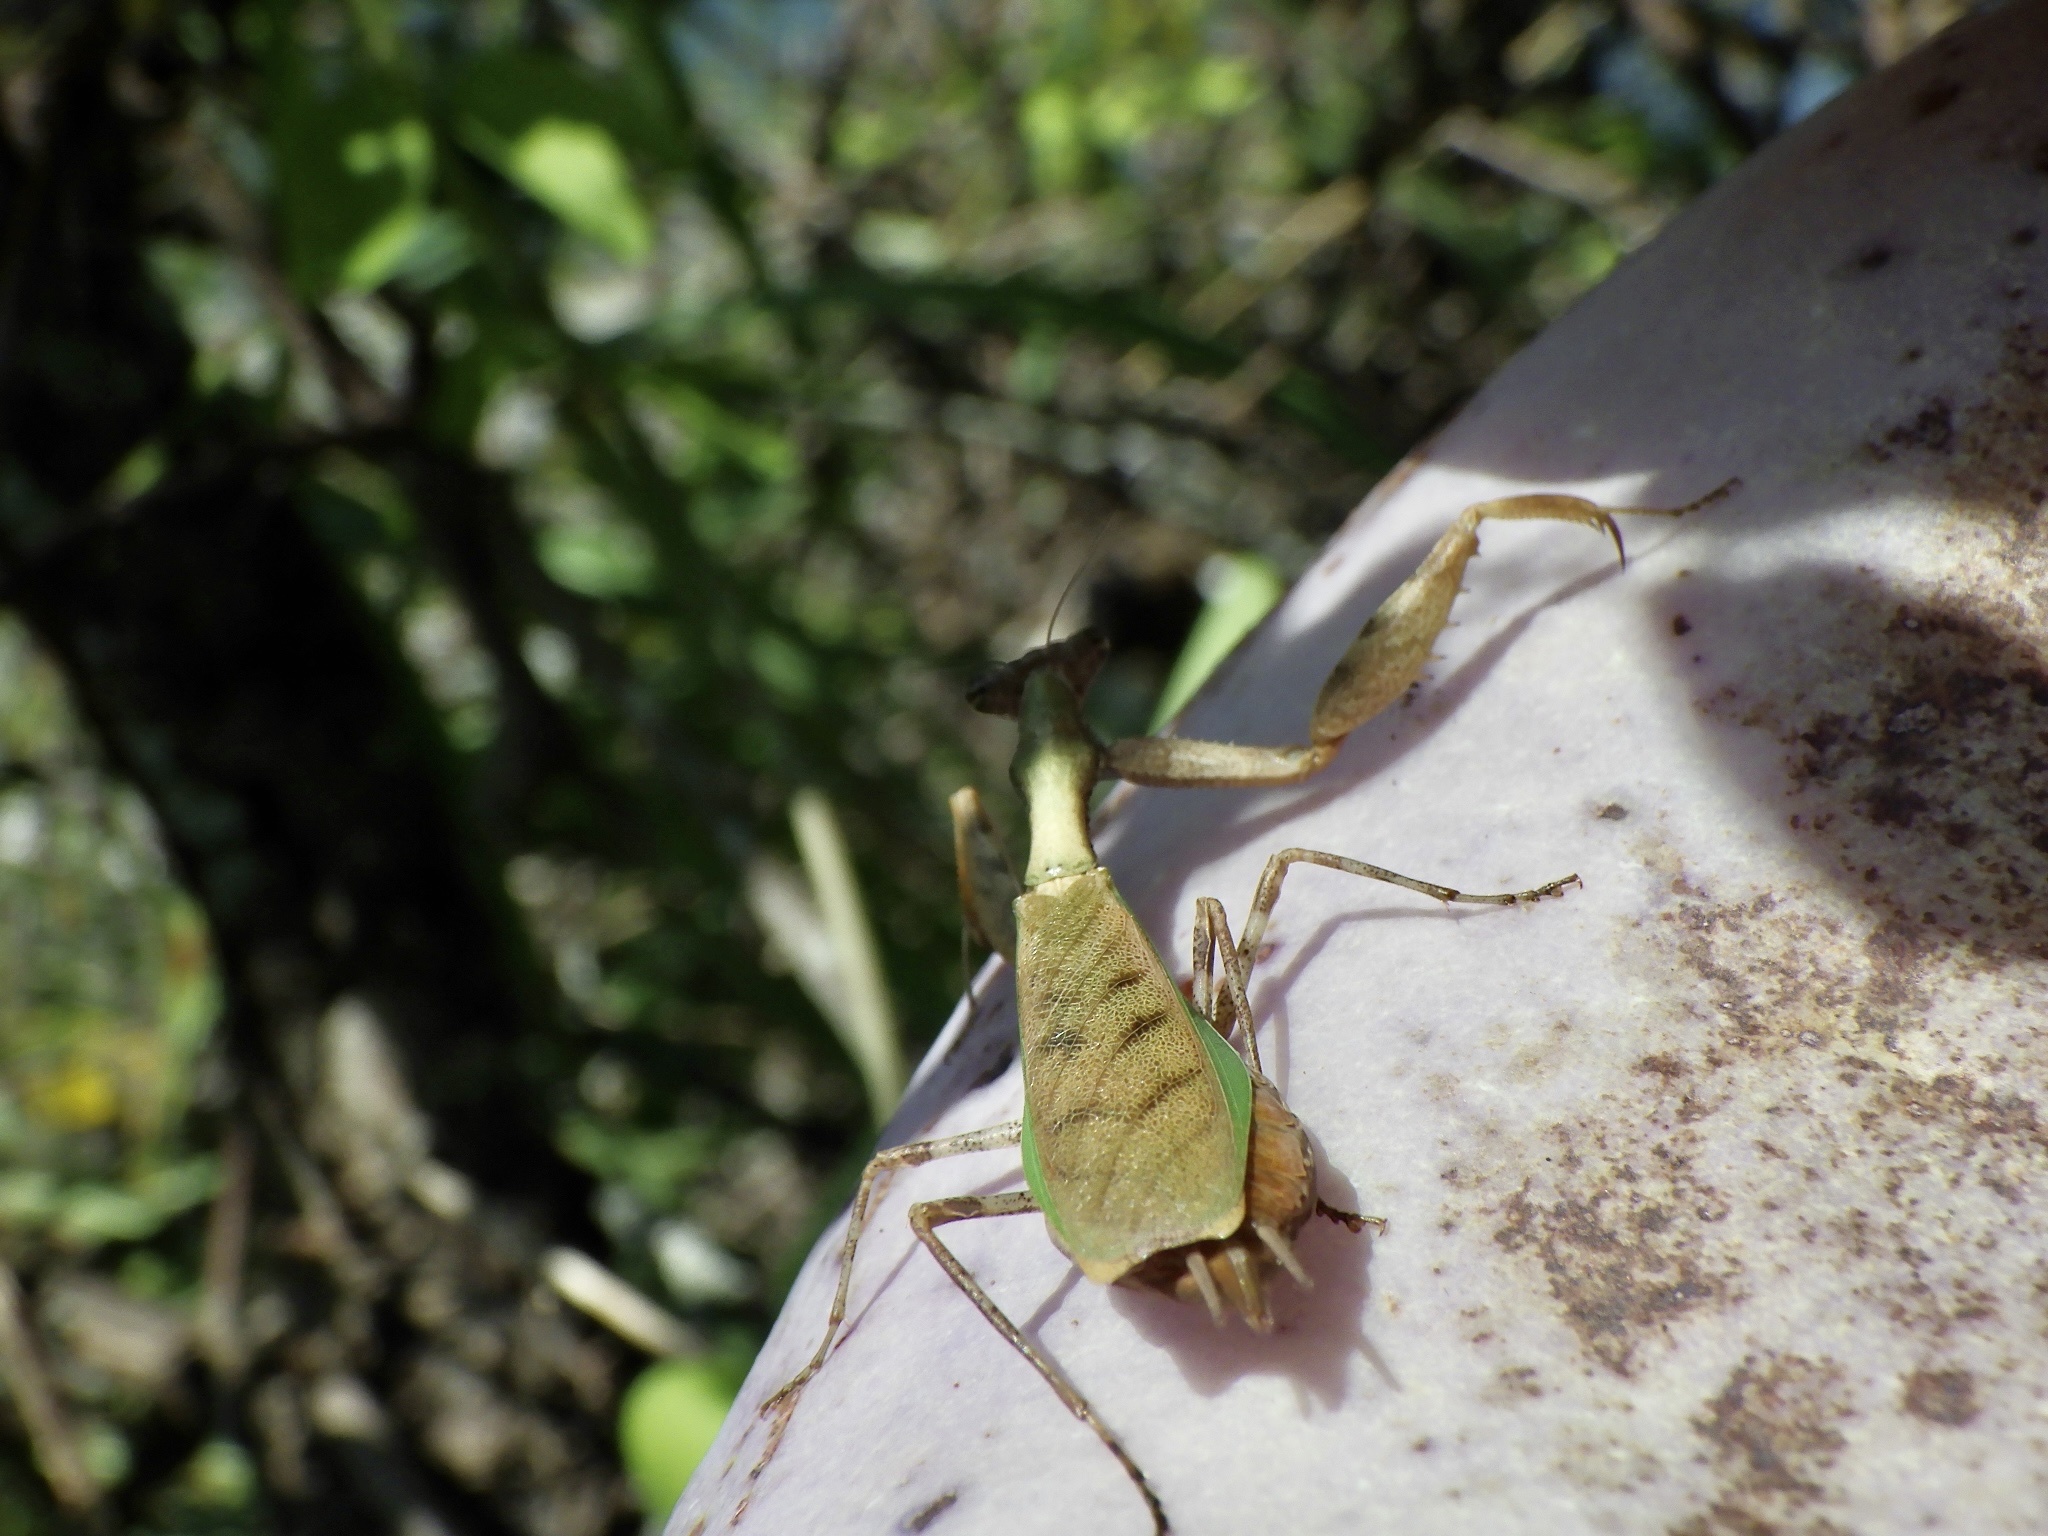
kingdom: Animalia
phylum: Arthropoda
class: Insecta
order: Mantodea
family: Hymenopodidae
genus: Acromantis
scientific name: Acromantis japonica
